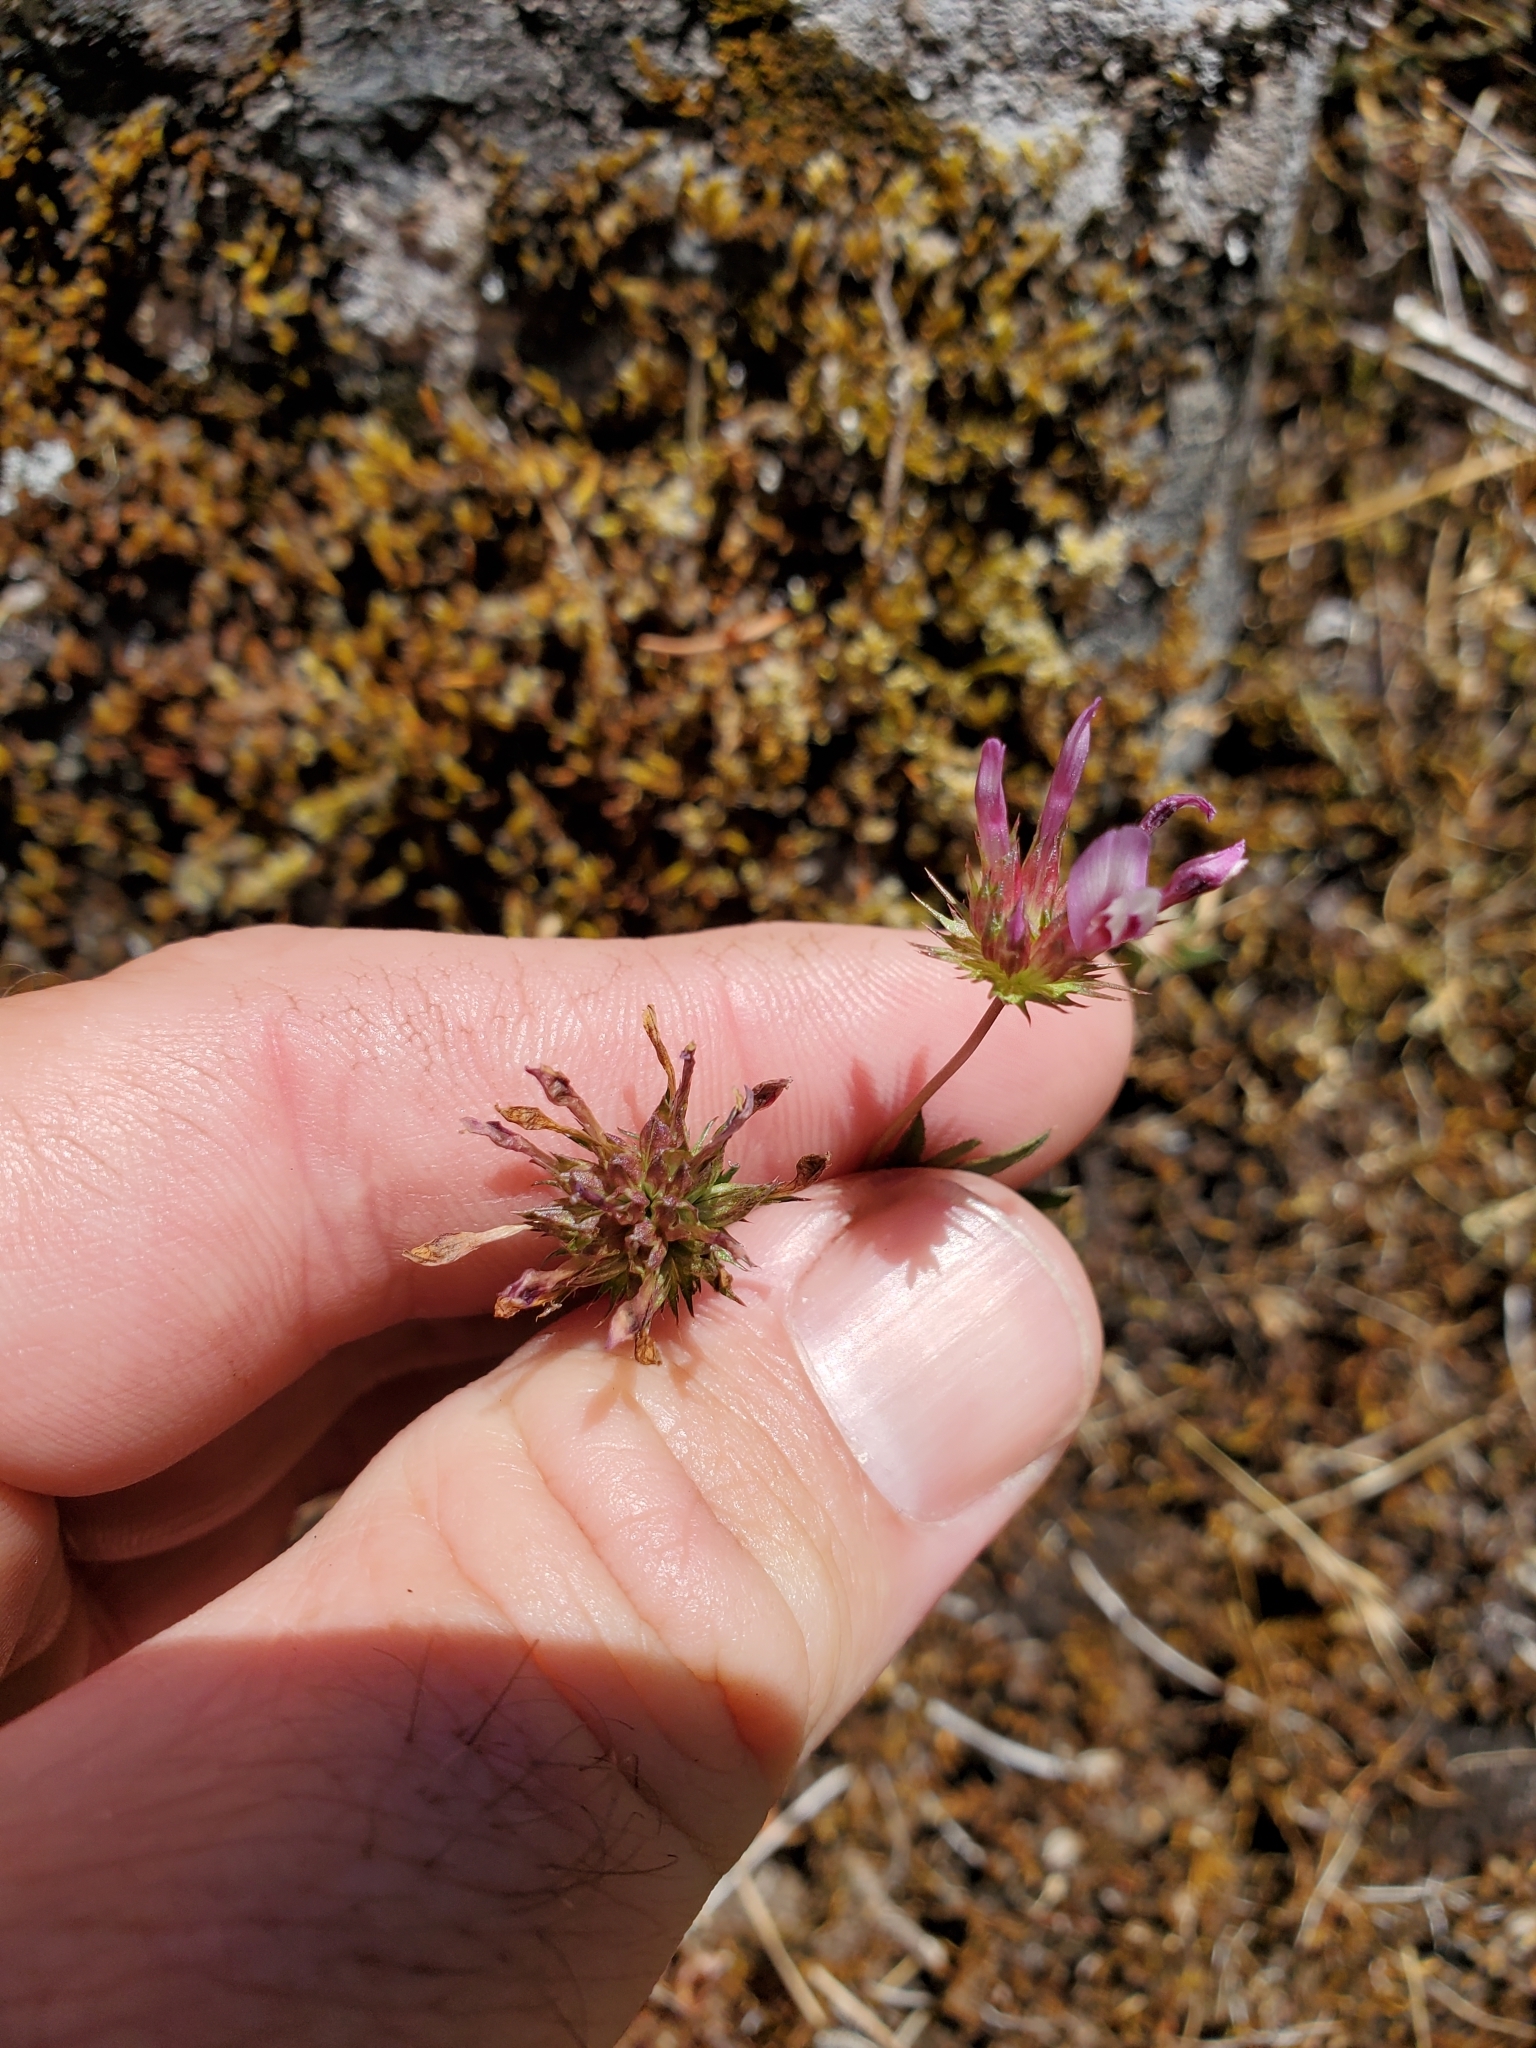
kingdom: Plantae
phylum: Tracheophyta
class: Magnoliopsida
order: Fabales
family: Fabaceae
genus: Trifolium
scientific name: Trifolium willdenovii
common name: Tomcat clover
